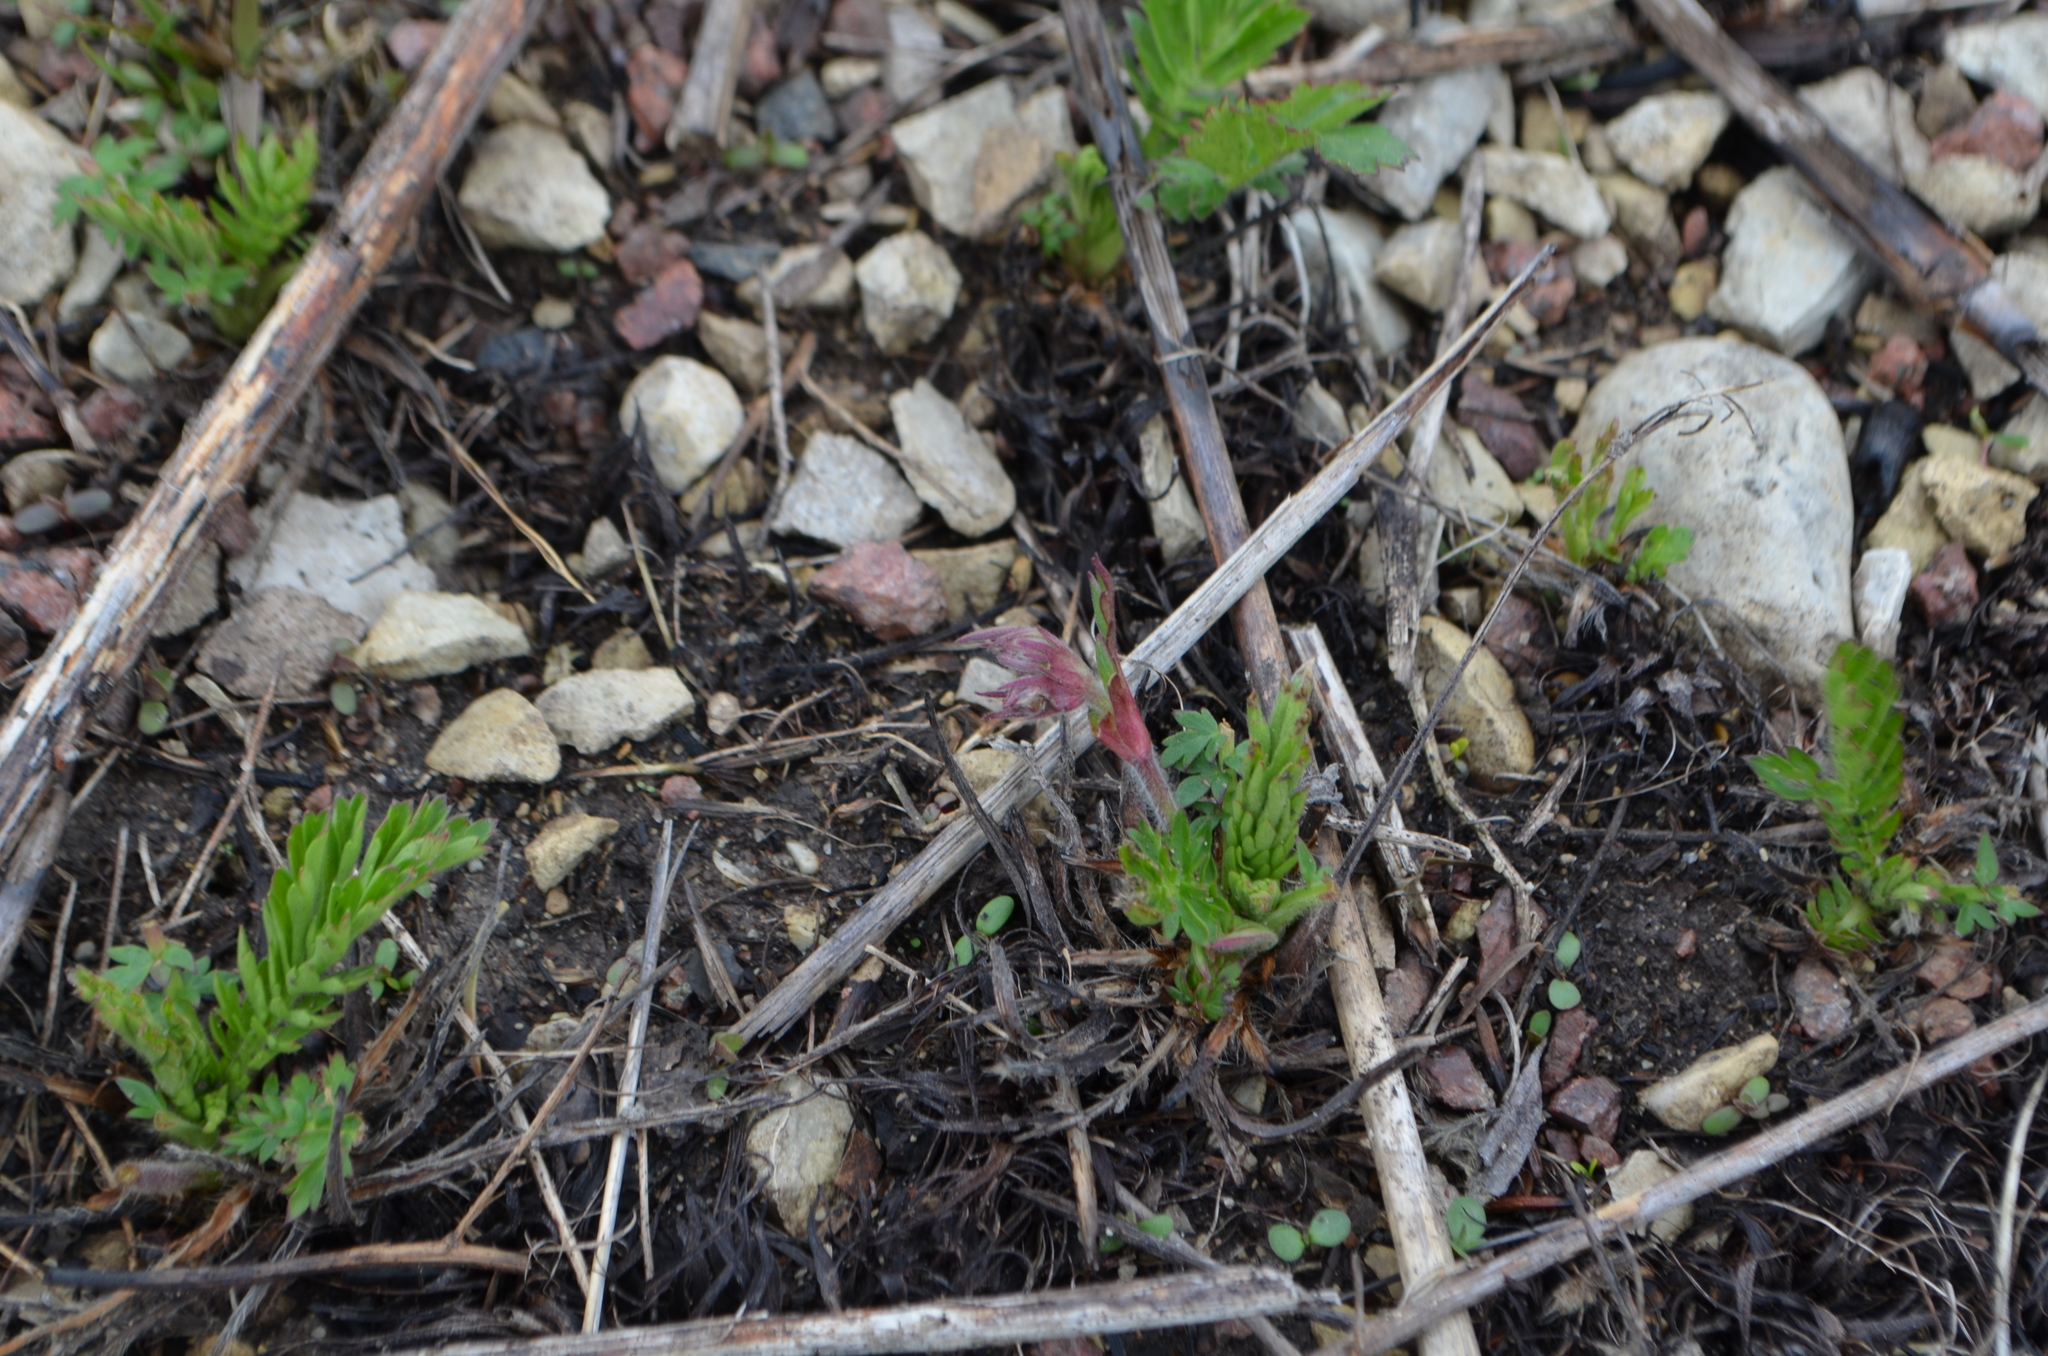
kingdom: Plantae
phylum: Tracheophyta
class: Magnoliopsida
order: Rosales
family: Rosaceae
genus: Geum
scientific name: Geum triflorum
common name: Old man's whiskers
